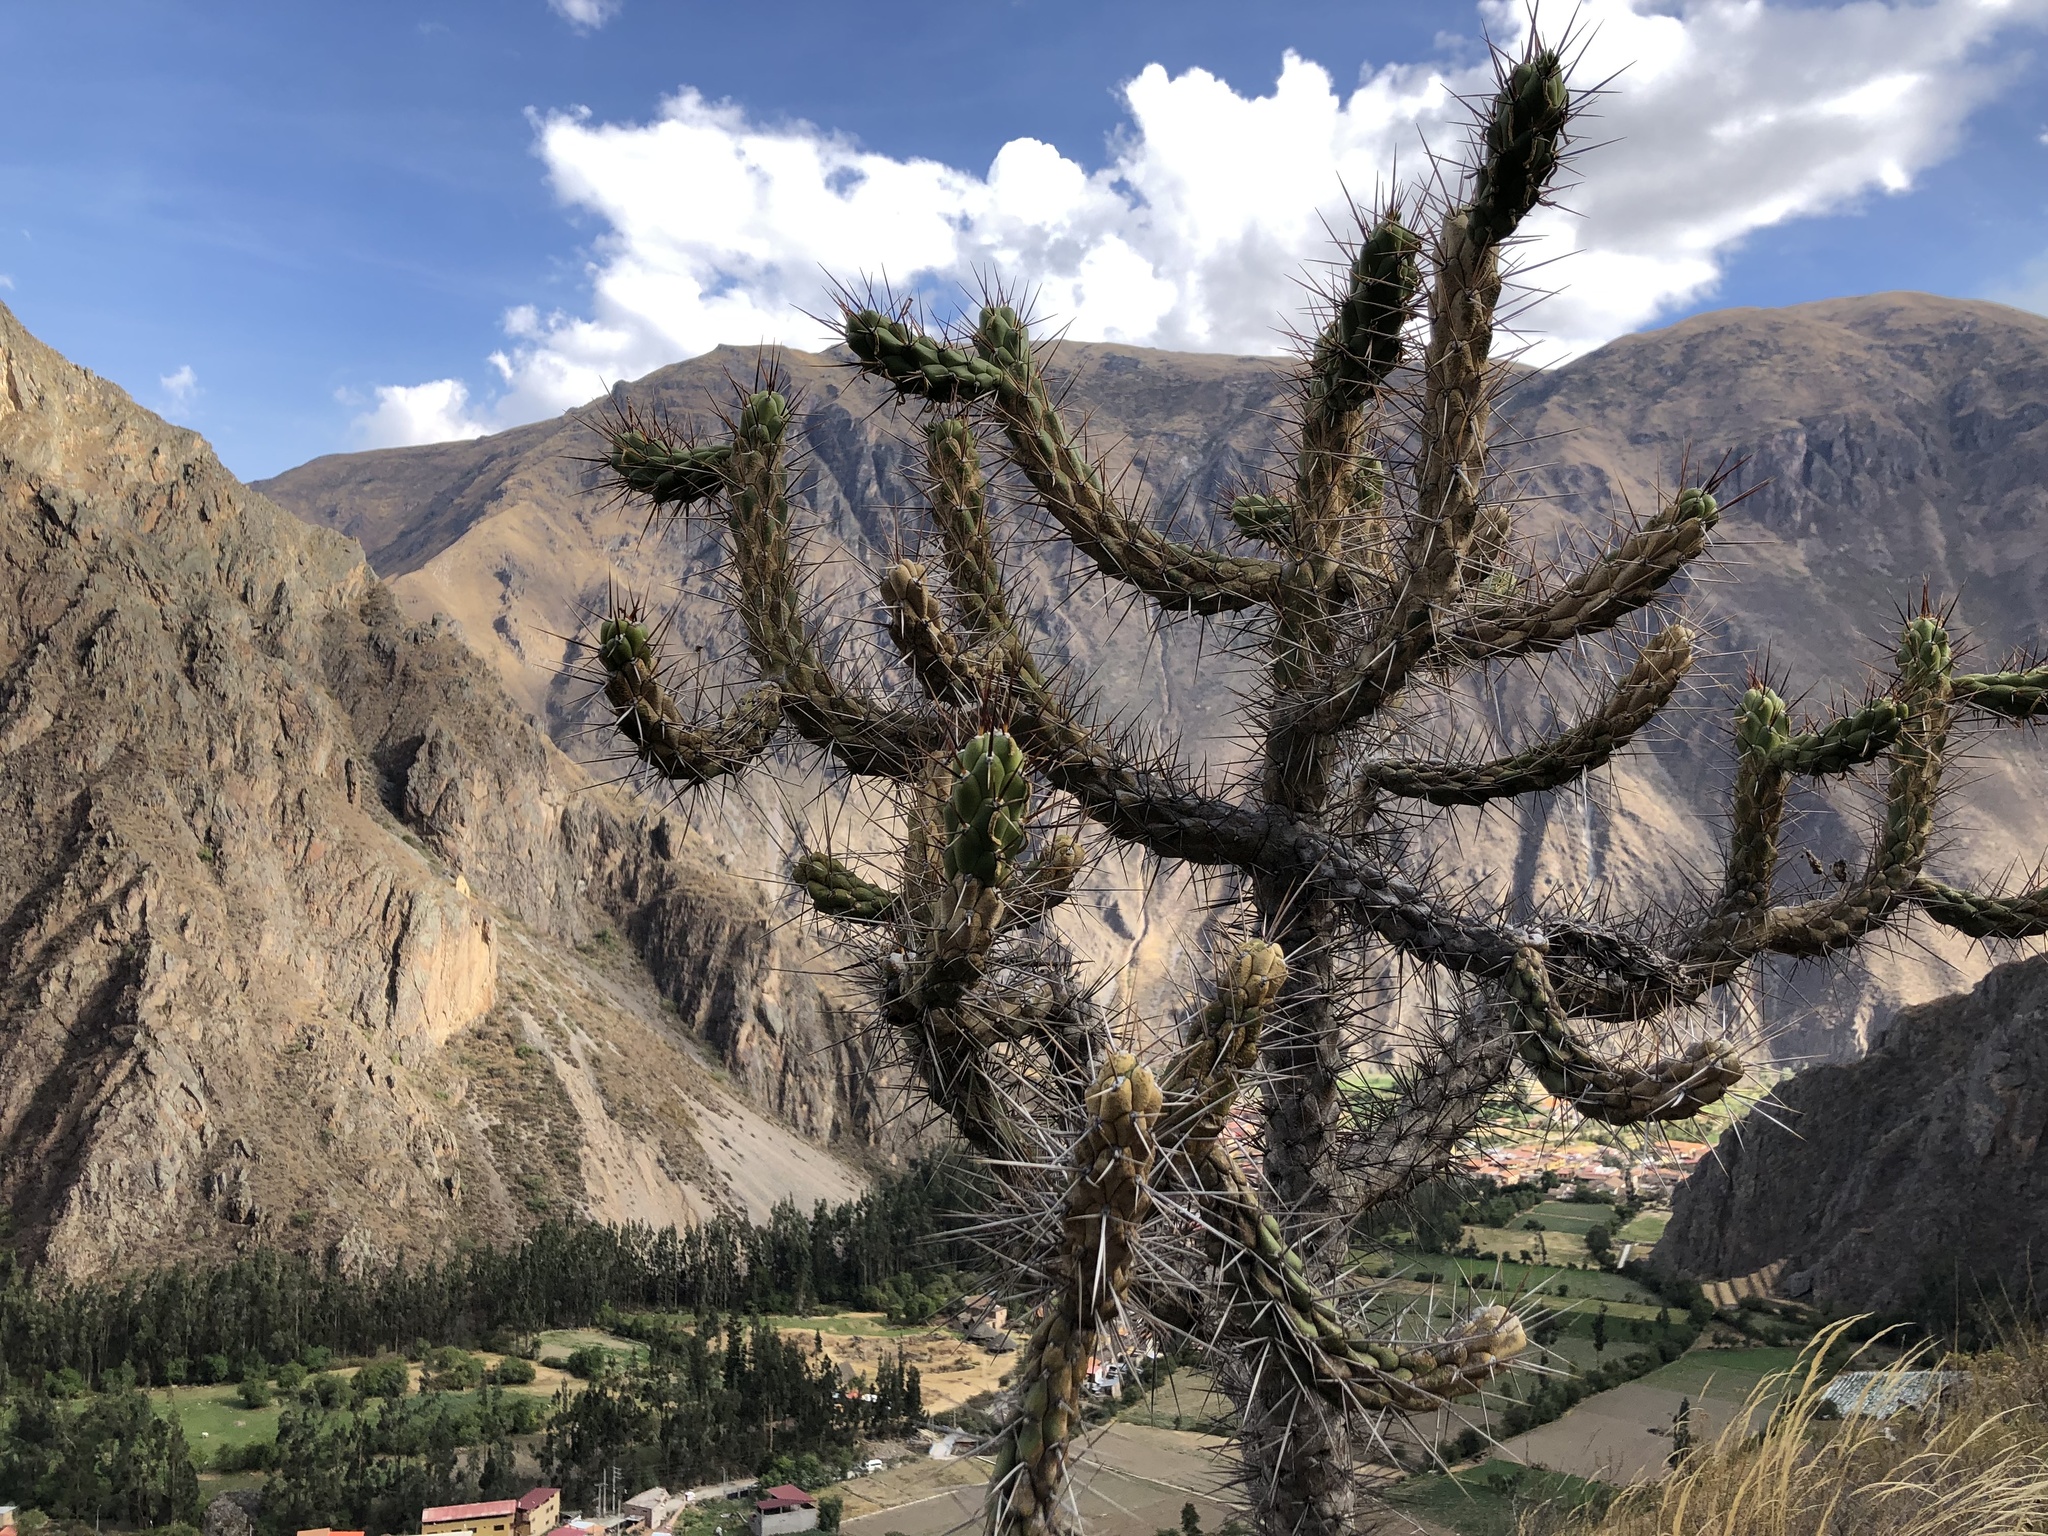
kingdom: Plantae
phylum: Tracheophyta
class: Magnoliopsida
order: Caryophyllales
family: Cactaceae
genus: Austrocylindropuntia
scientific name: Austrocylindropuntia subulata
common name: Eve's needle cactus
